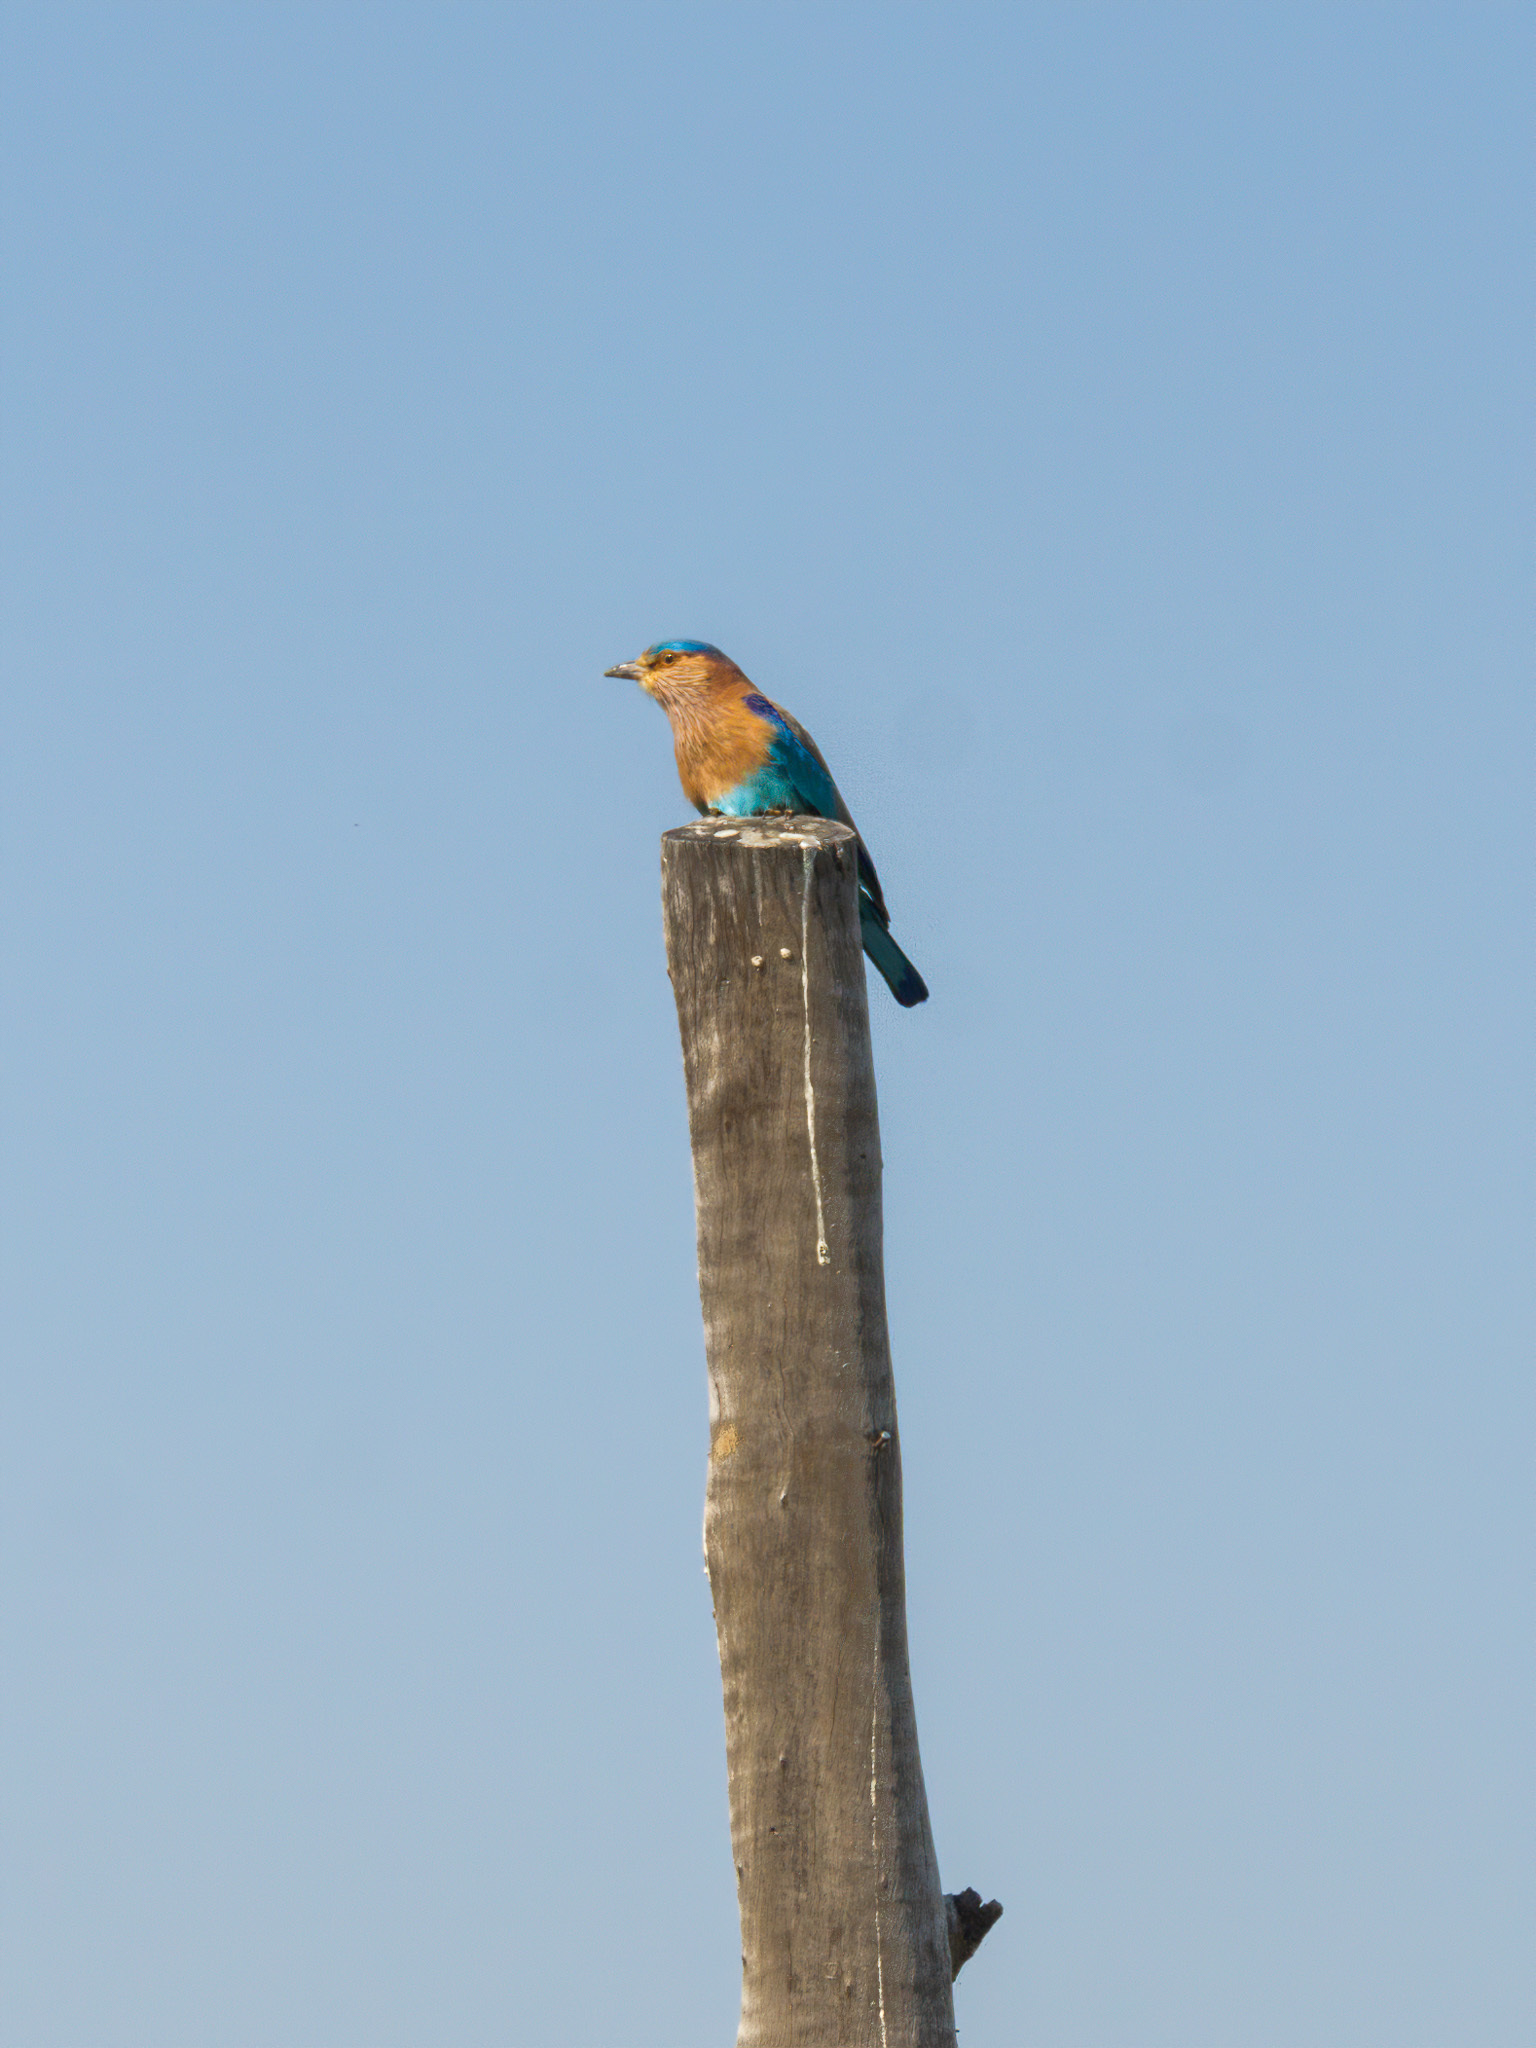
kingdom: Animalia
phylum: Chordata
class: Aves
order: Coraciiformes
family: Coraciidae
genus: Coracias
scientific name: Coracias benghalensis
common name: Indian roller
